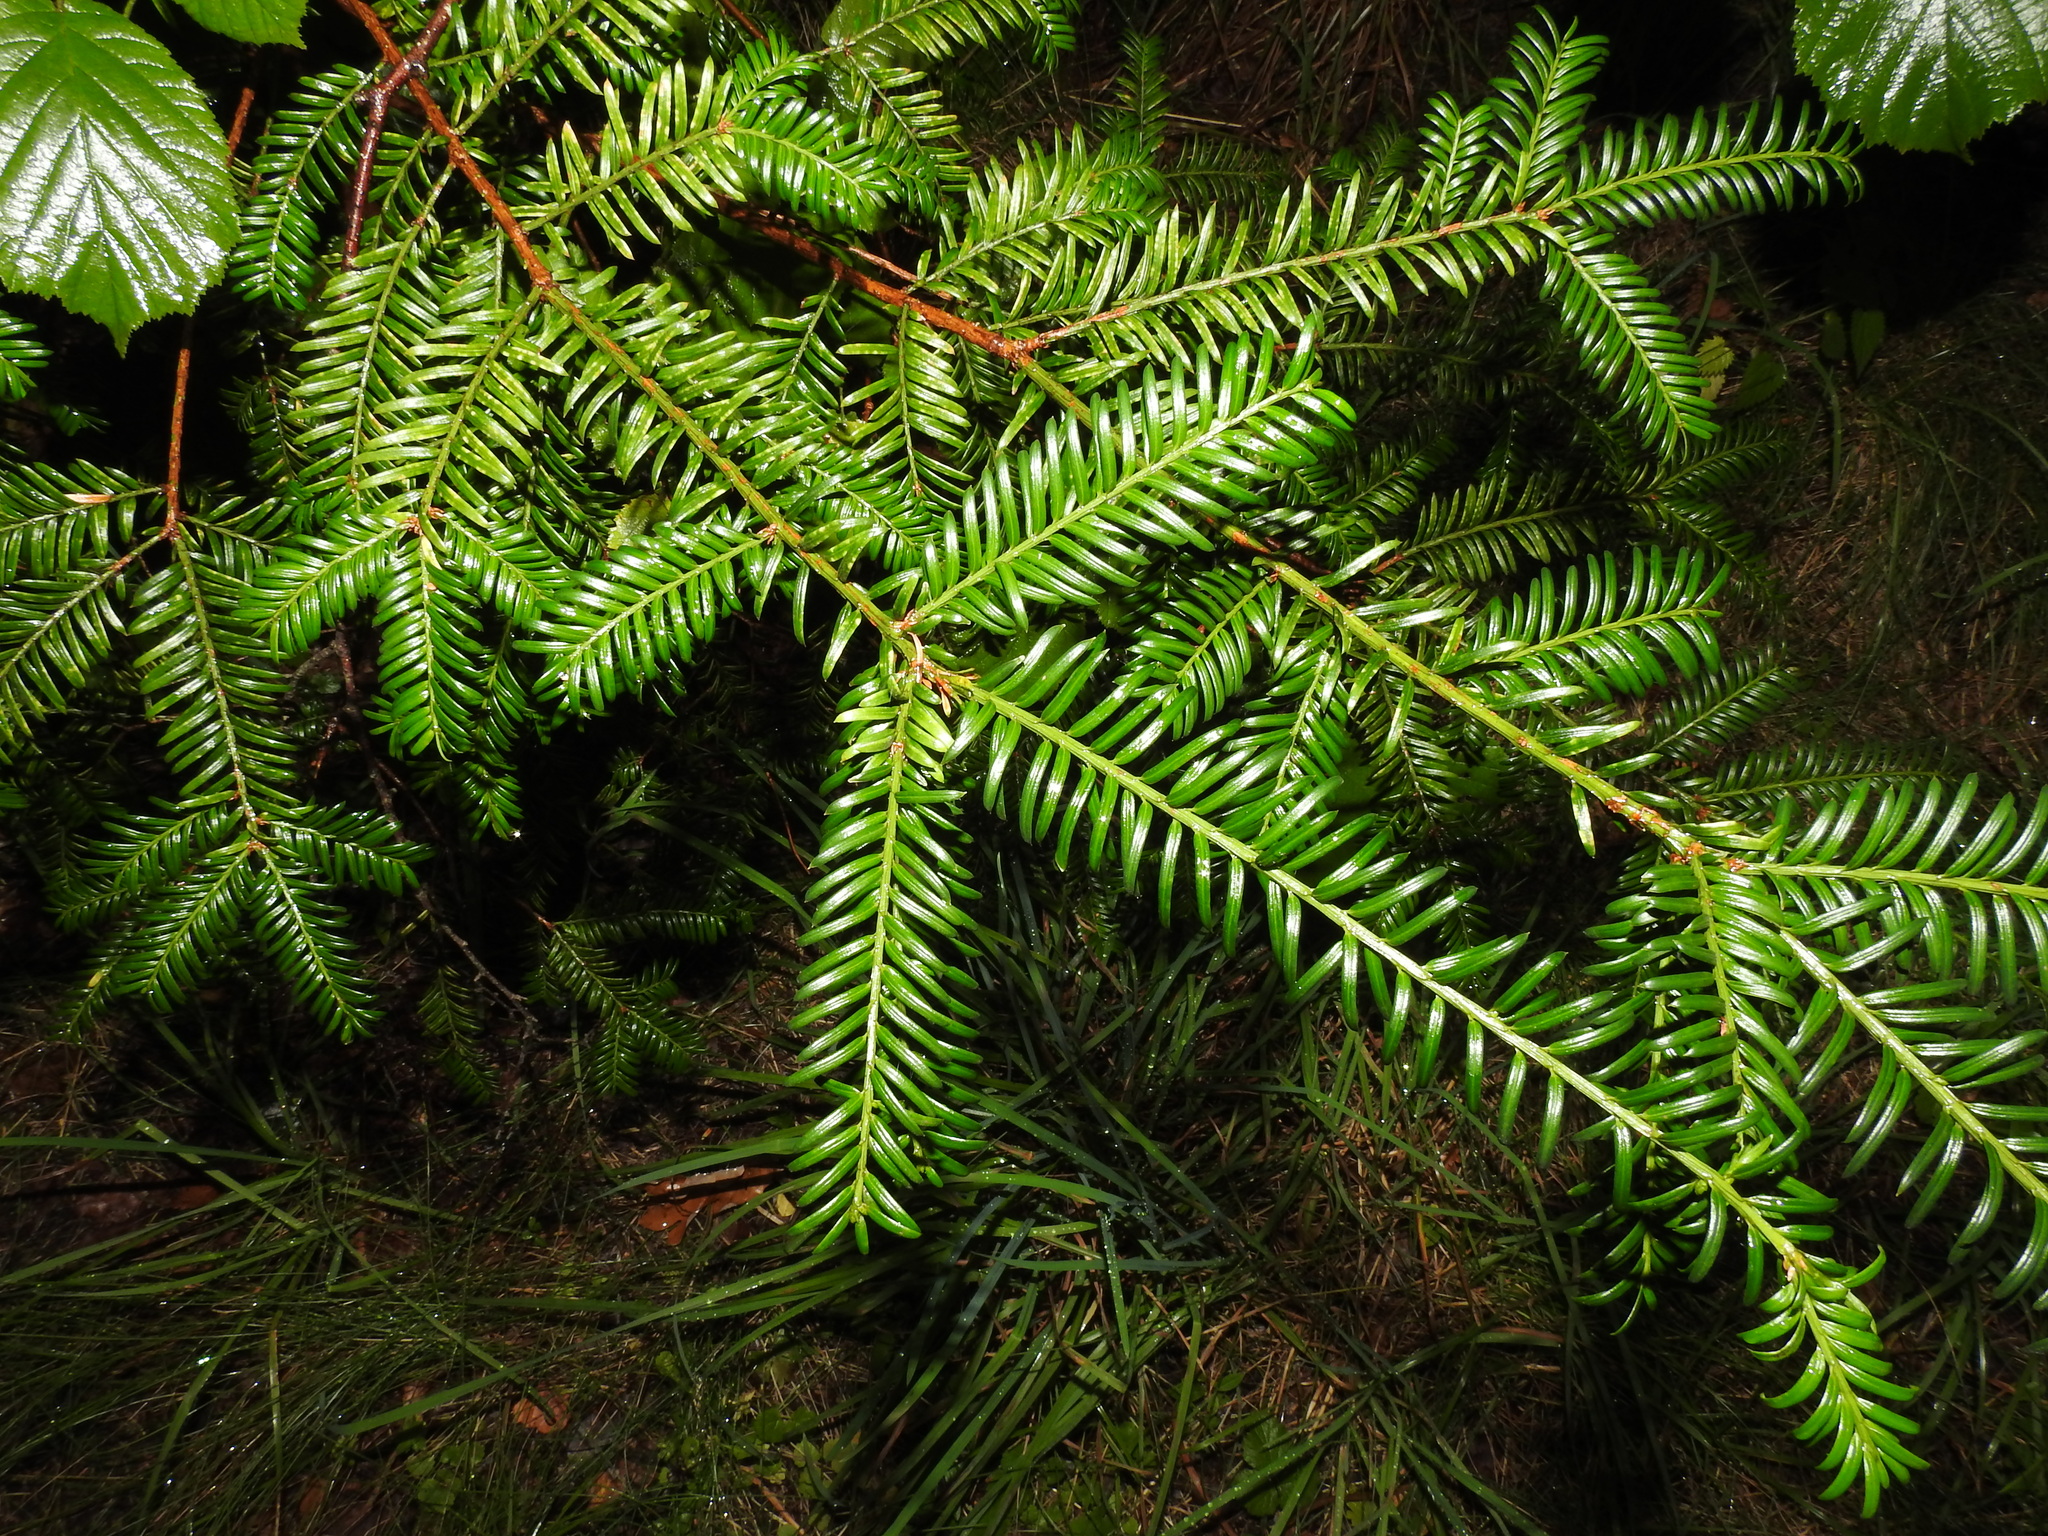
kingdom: Plantae
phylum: Tracheophyta
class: Pinopsida
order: Pinales
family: Taxaceae
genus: Taxus
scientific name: Taxus baccata
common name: Yew
